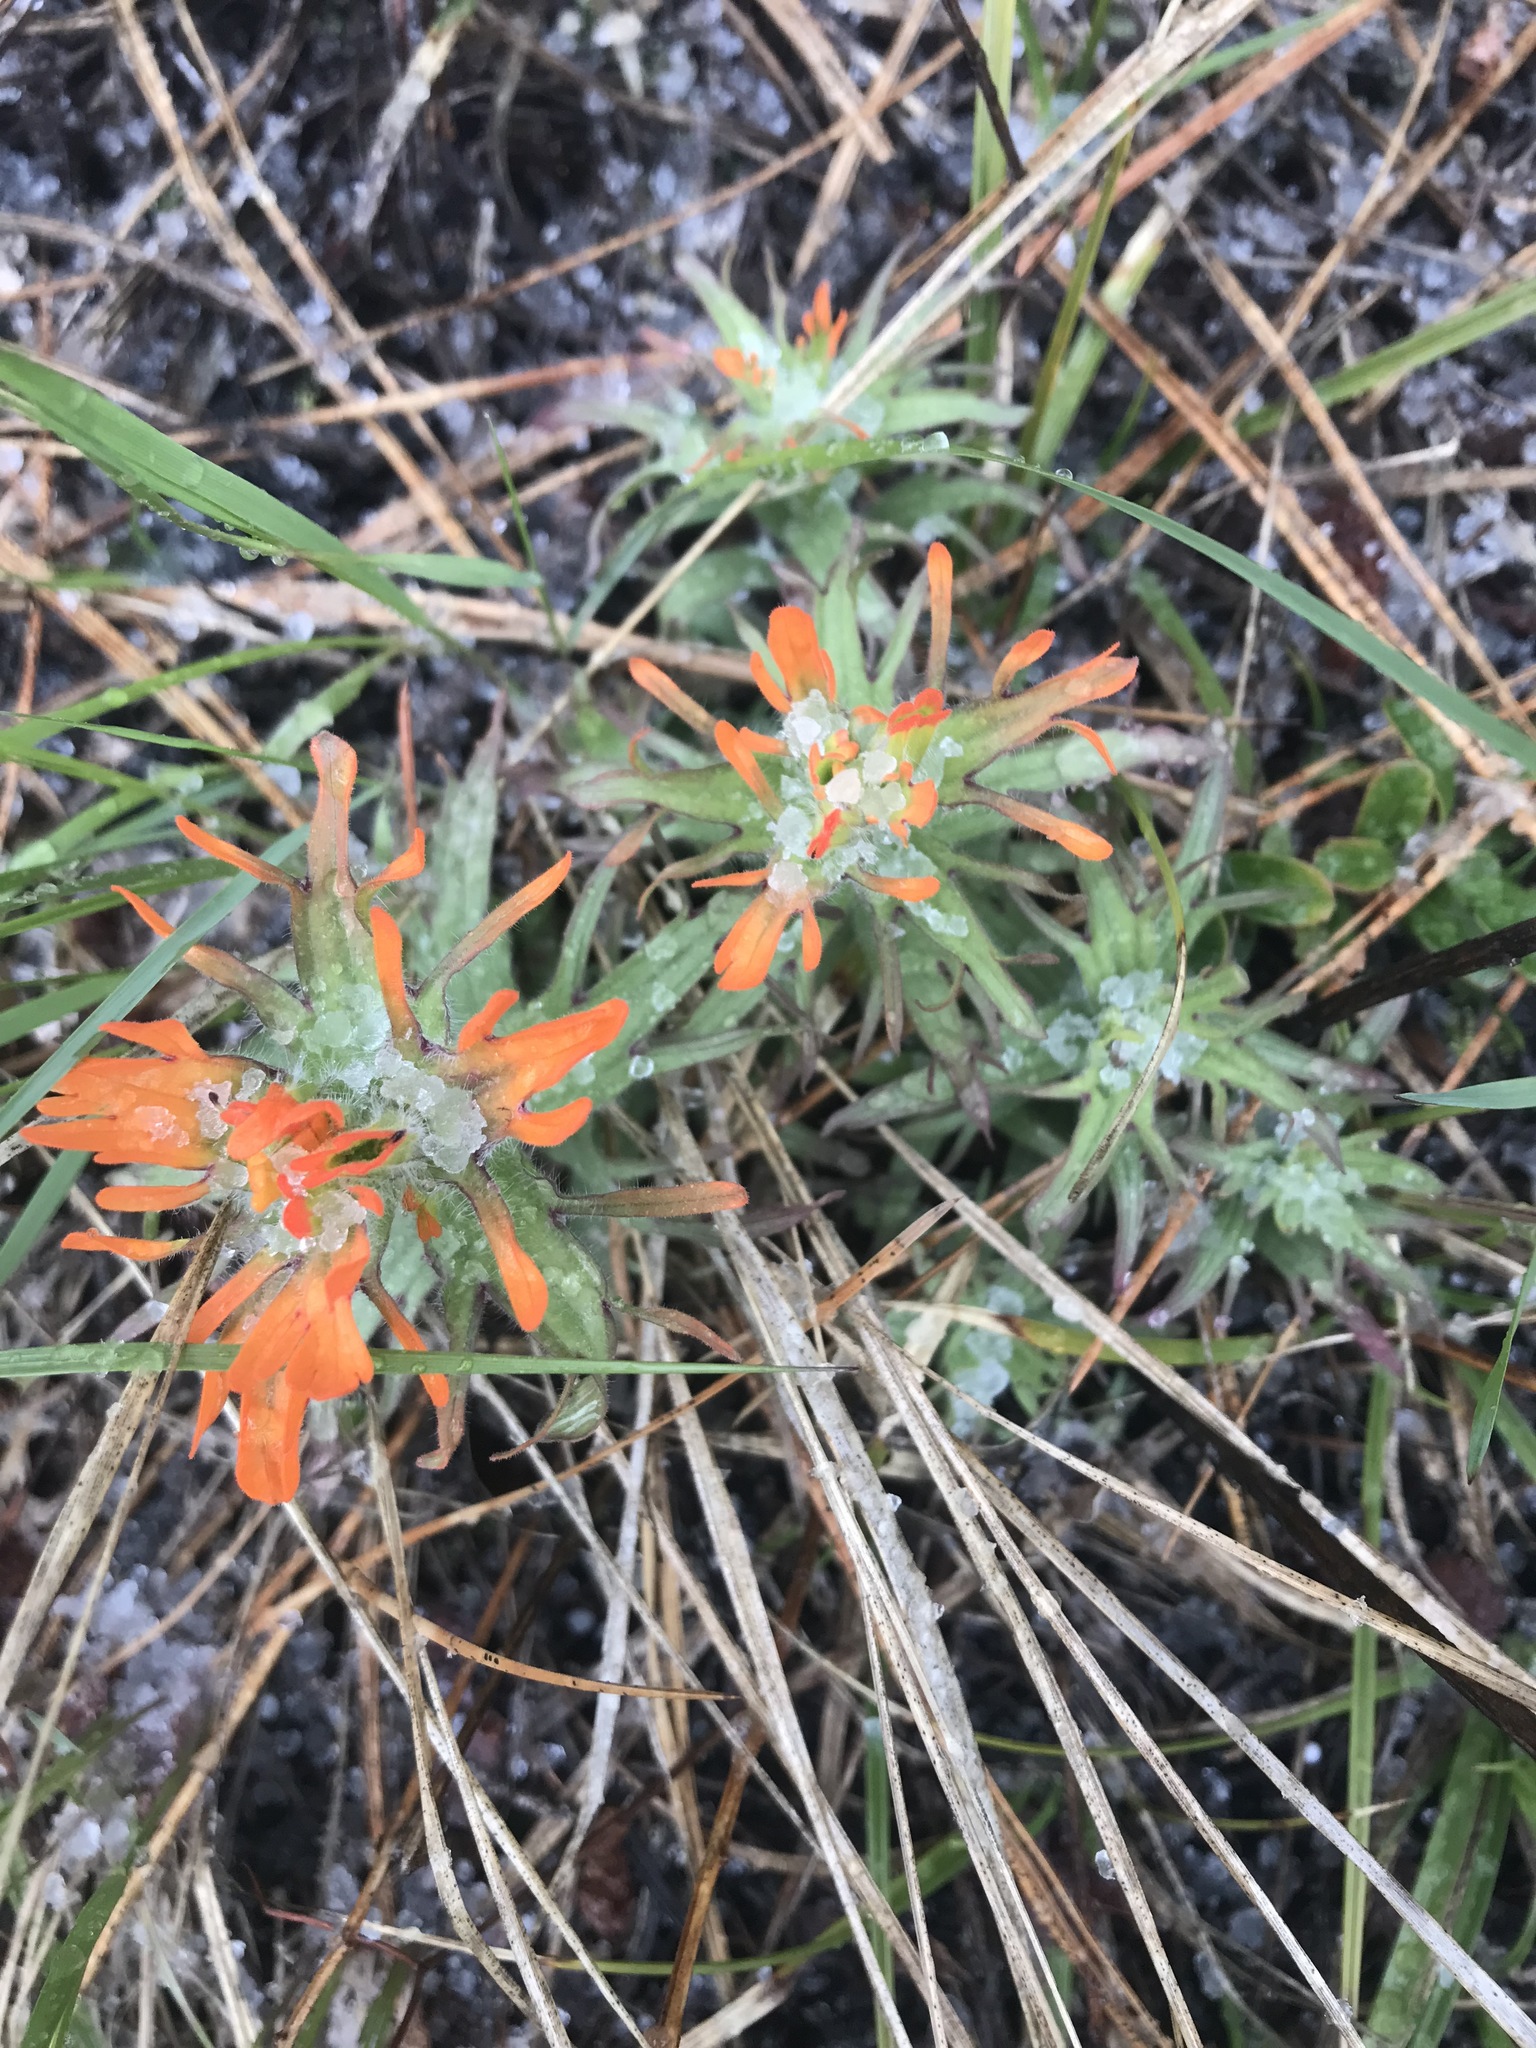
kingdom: Plantae
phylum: Tracheophyta
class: Magnoliopsida
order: Lamiales
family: Orobanchaceae
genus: Castilleja
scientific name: Castilleja hispida
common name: Bristly paintbrush
